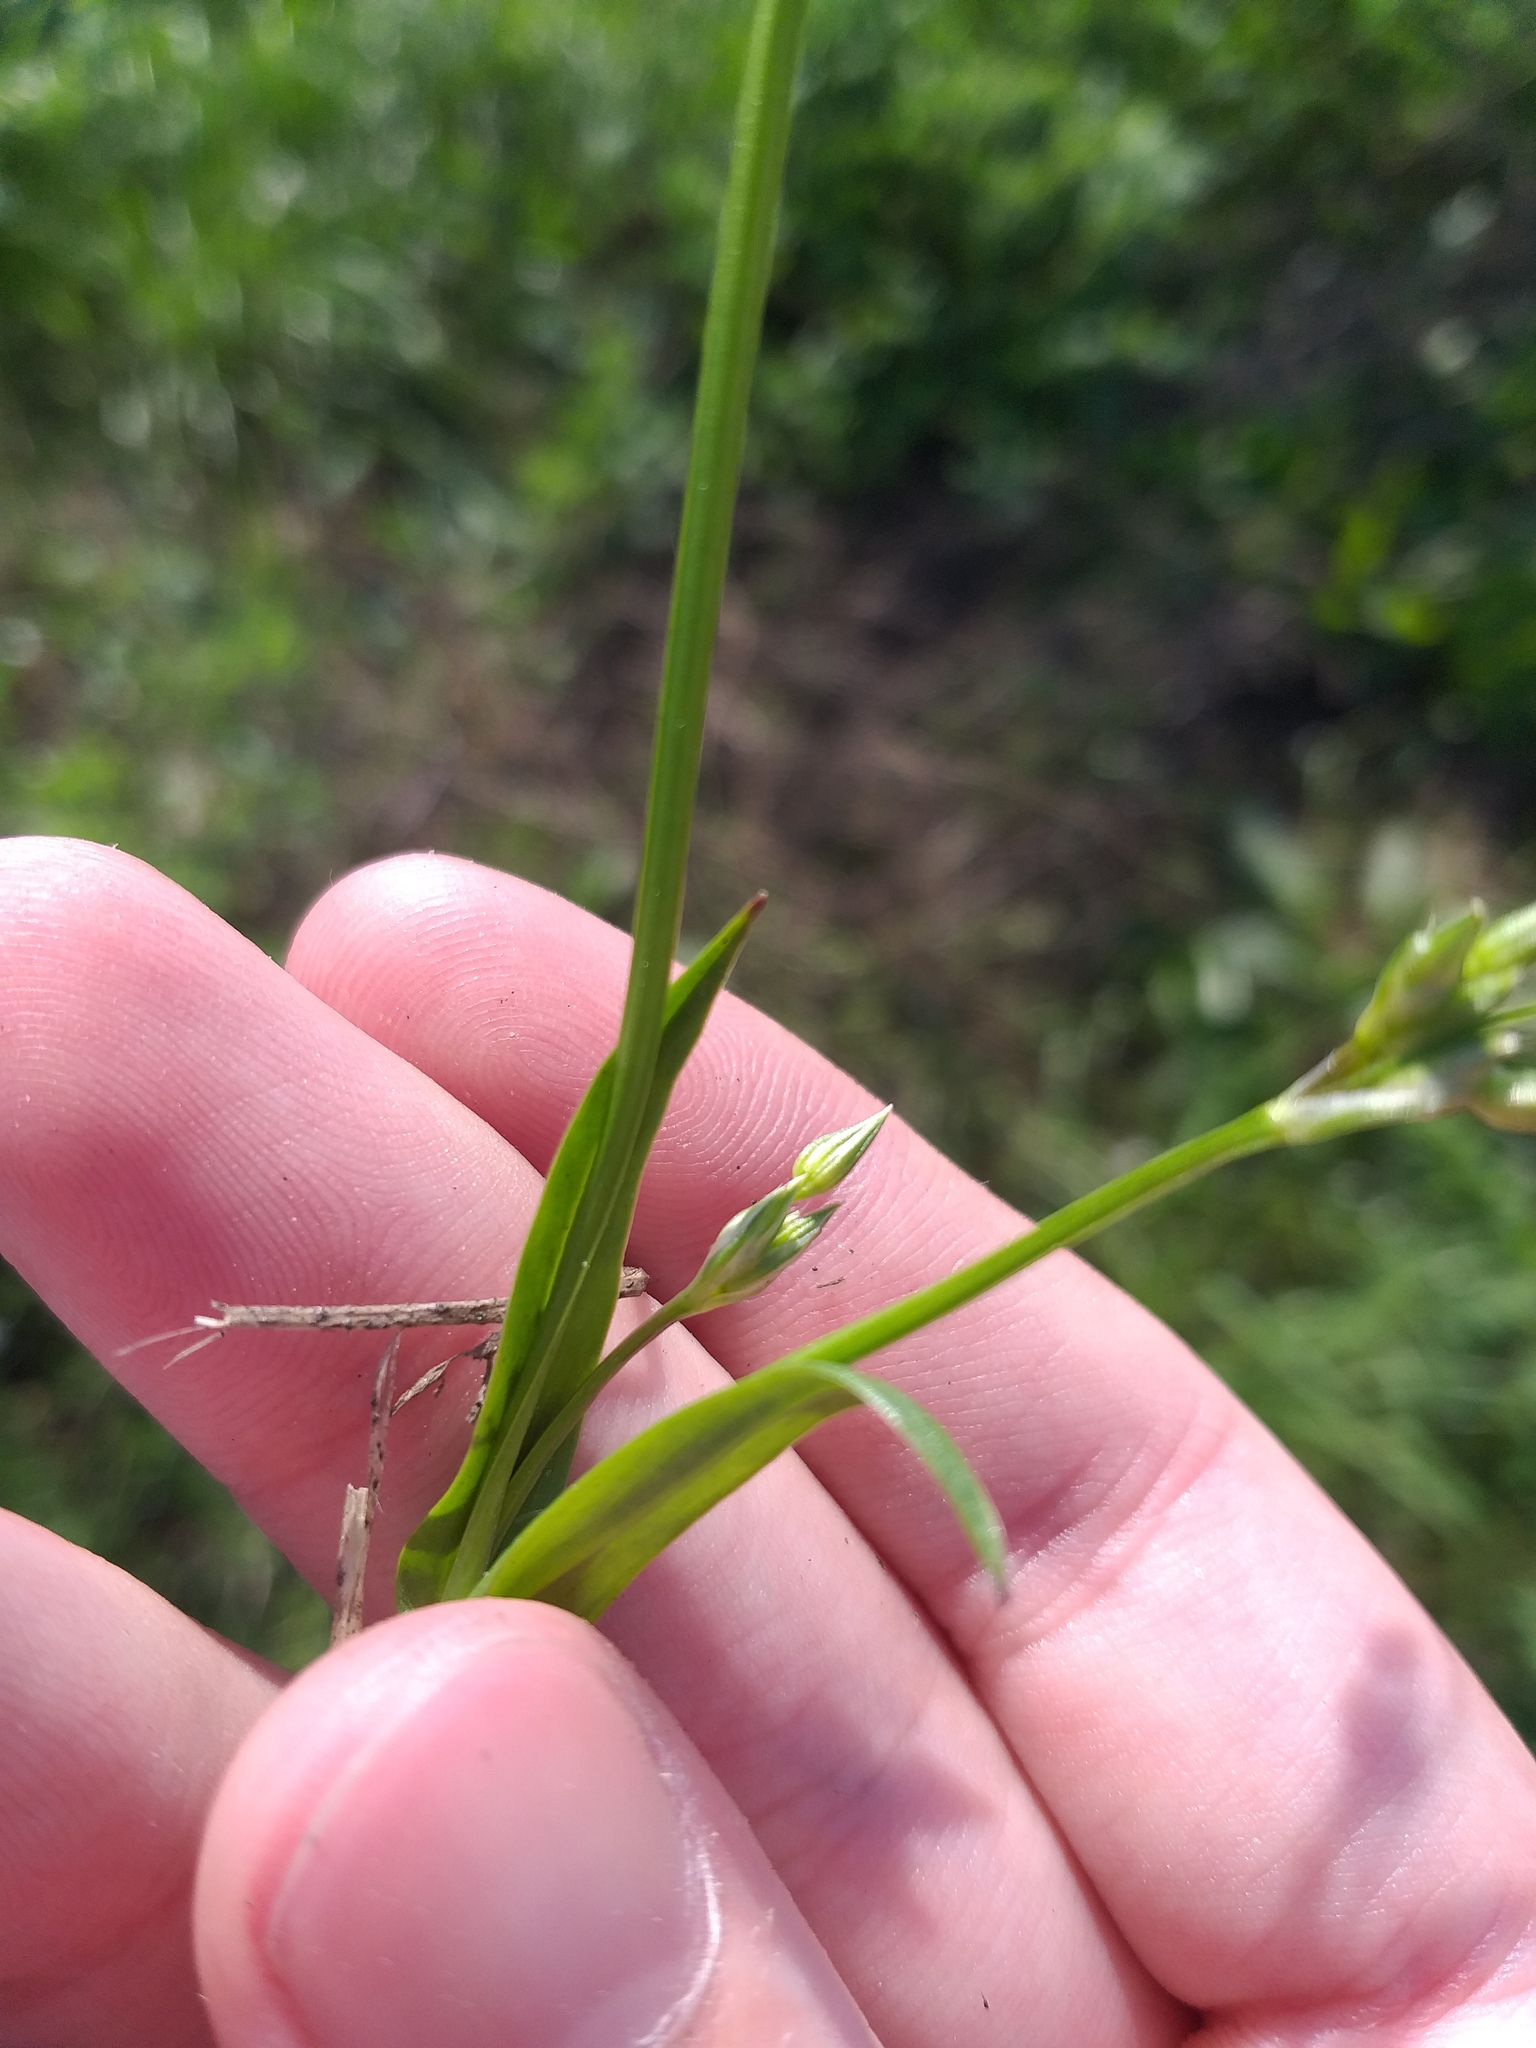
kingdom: Plantae
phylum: Tracheophyta
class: Magnoliopsida
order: Caryophyllales
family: Caryophyllaceae
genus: Stellaria
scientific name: Stellaria graminea
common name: Grass-like starwort
